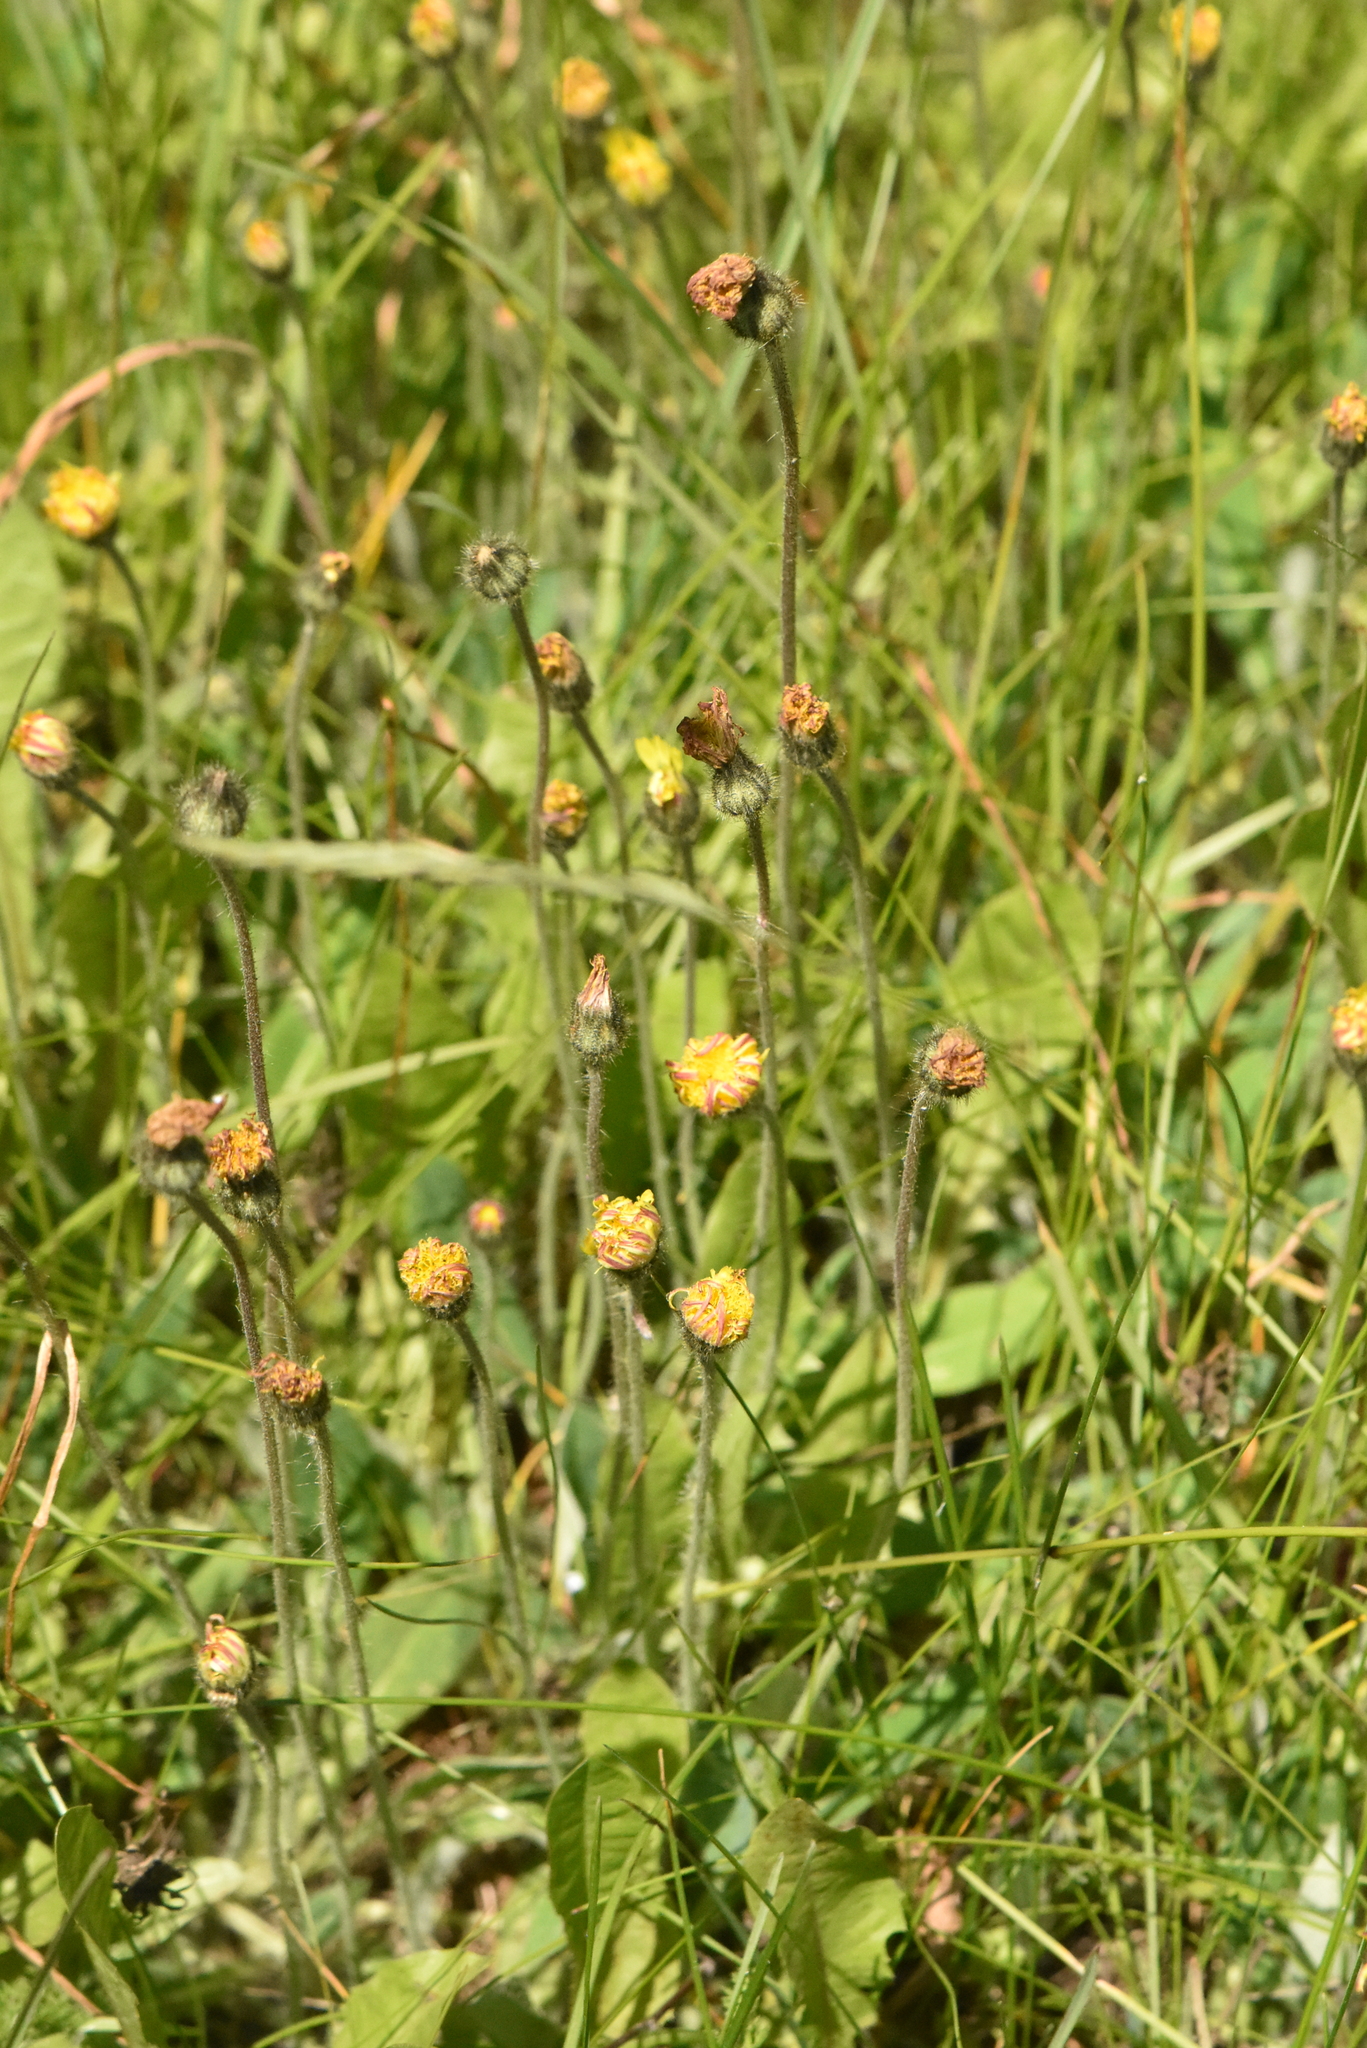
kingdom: Plantae
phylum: Tracheophyta
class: Magnoliopsida
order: Asterales
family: Asteraceae
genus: Pilosella
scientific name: Pilosella officinarum
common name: Mouse-ear hawkweed
